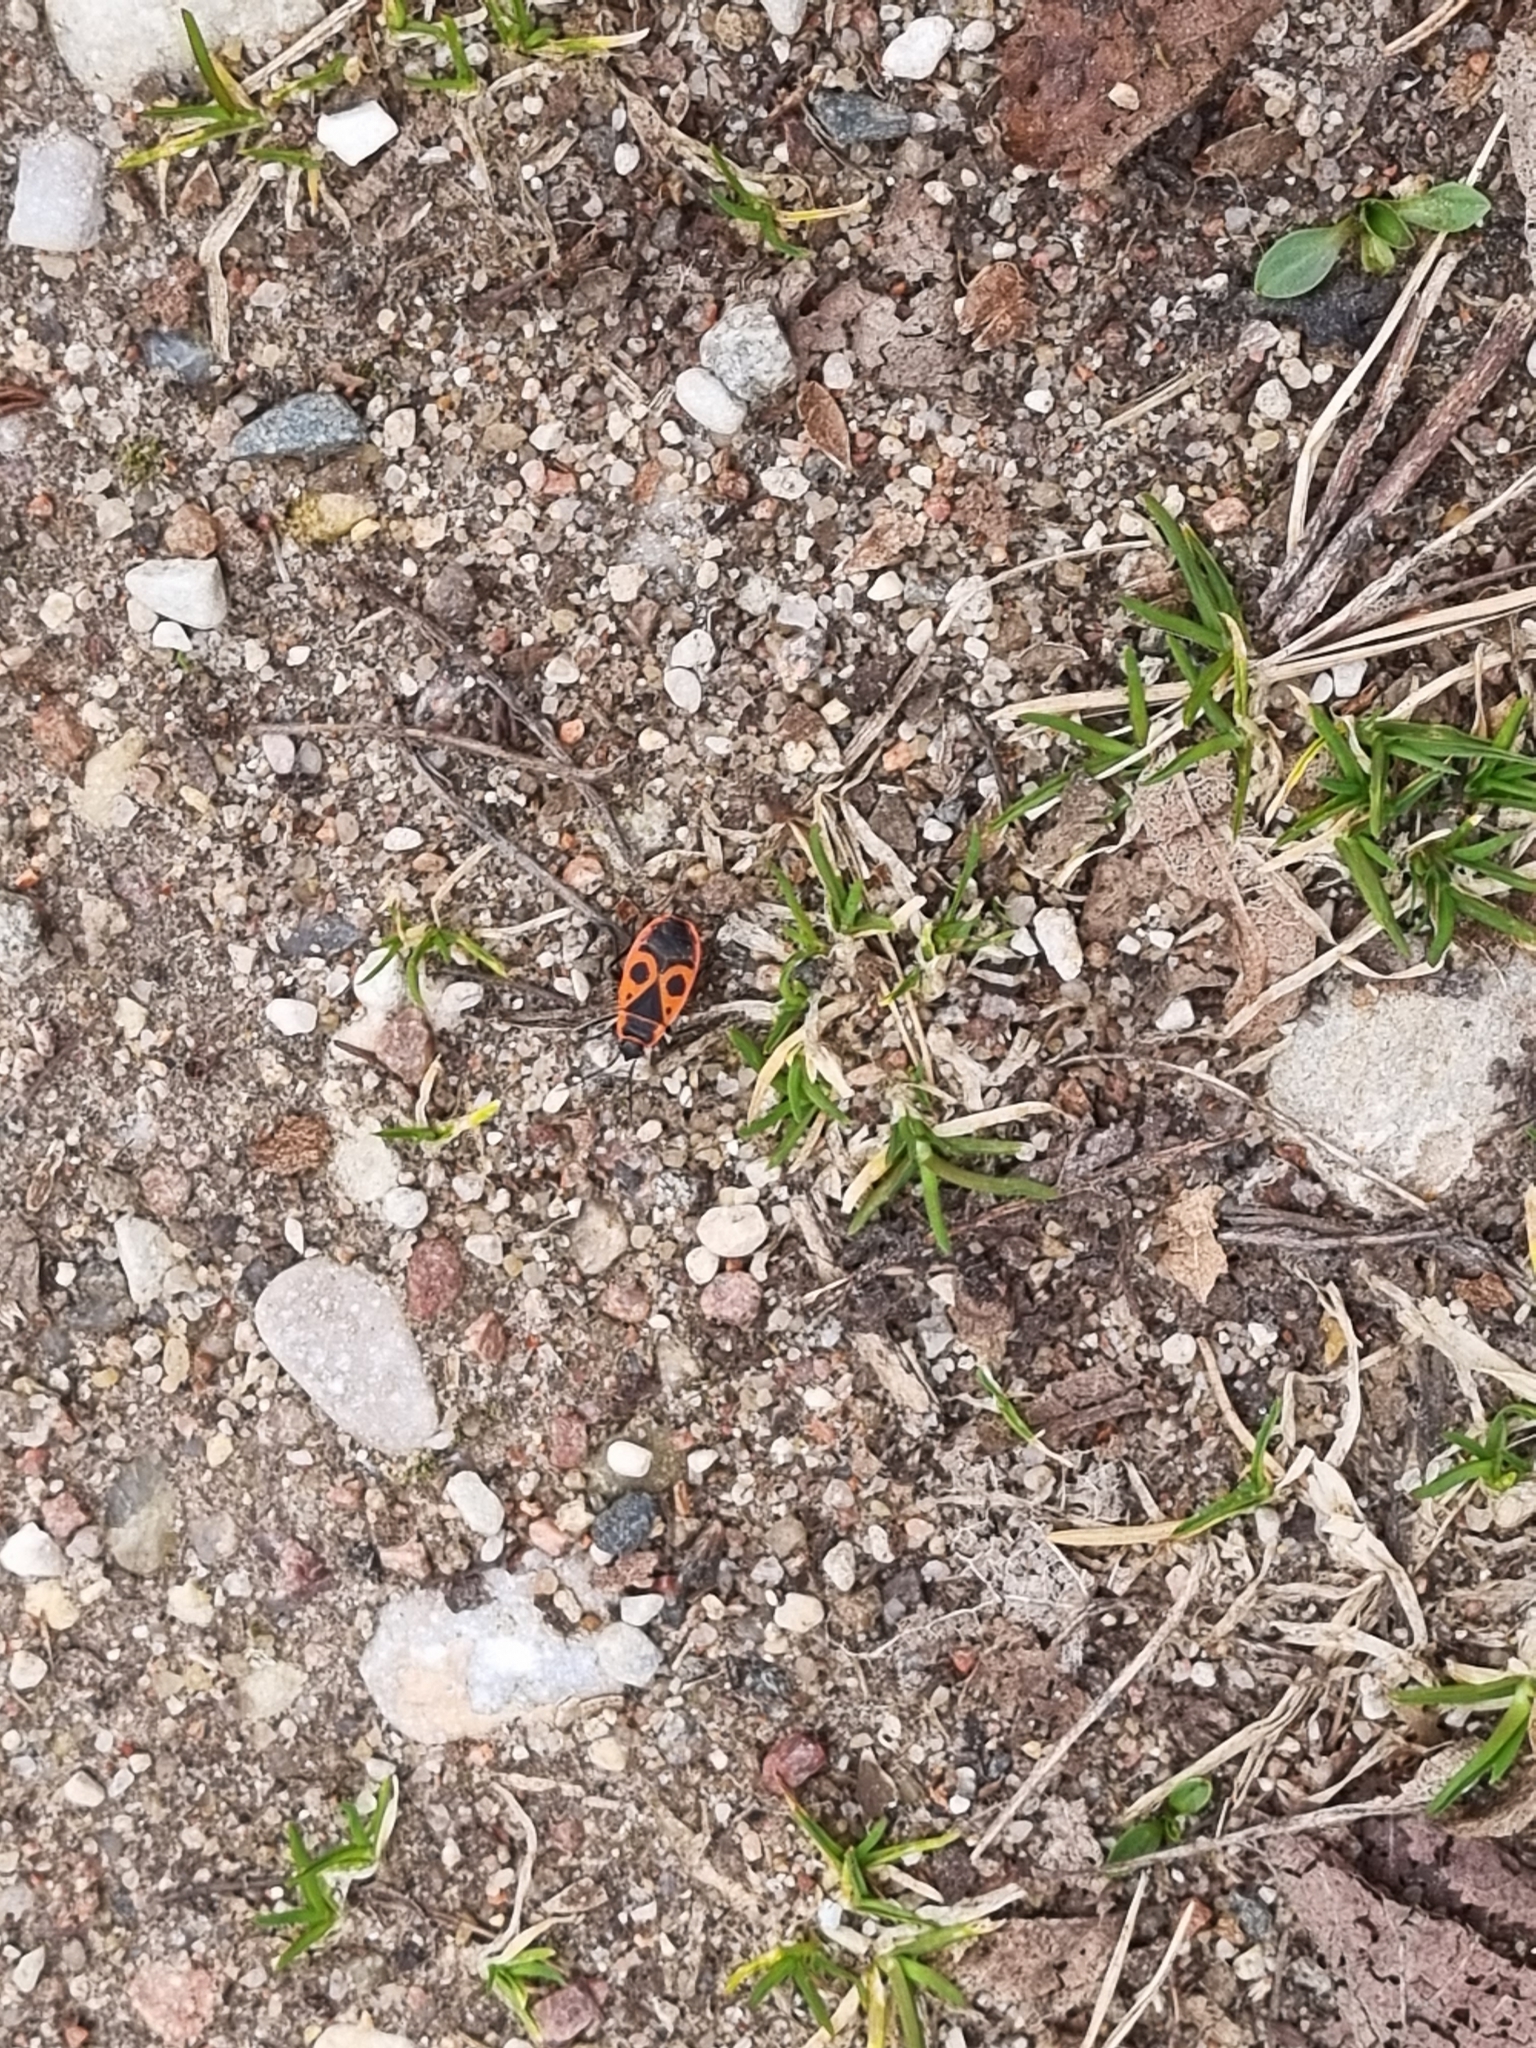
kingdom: Animalia
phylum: Arthropoda
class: Insecta
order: Hemiptera
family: Pyrrhocoridae
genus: Pyrrhocoris
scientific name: Pyrrhocoris apterus
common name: Firebug
